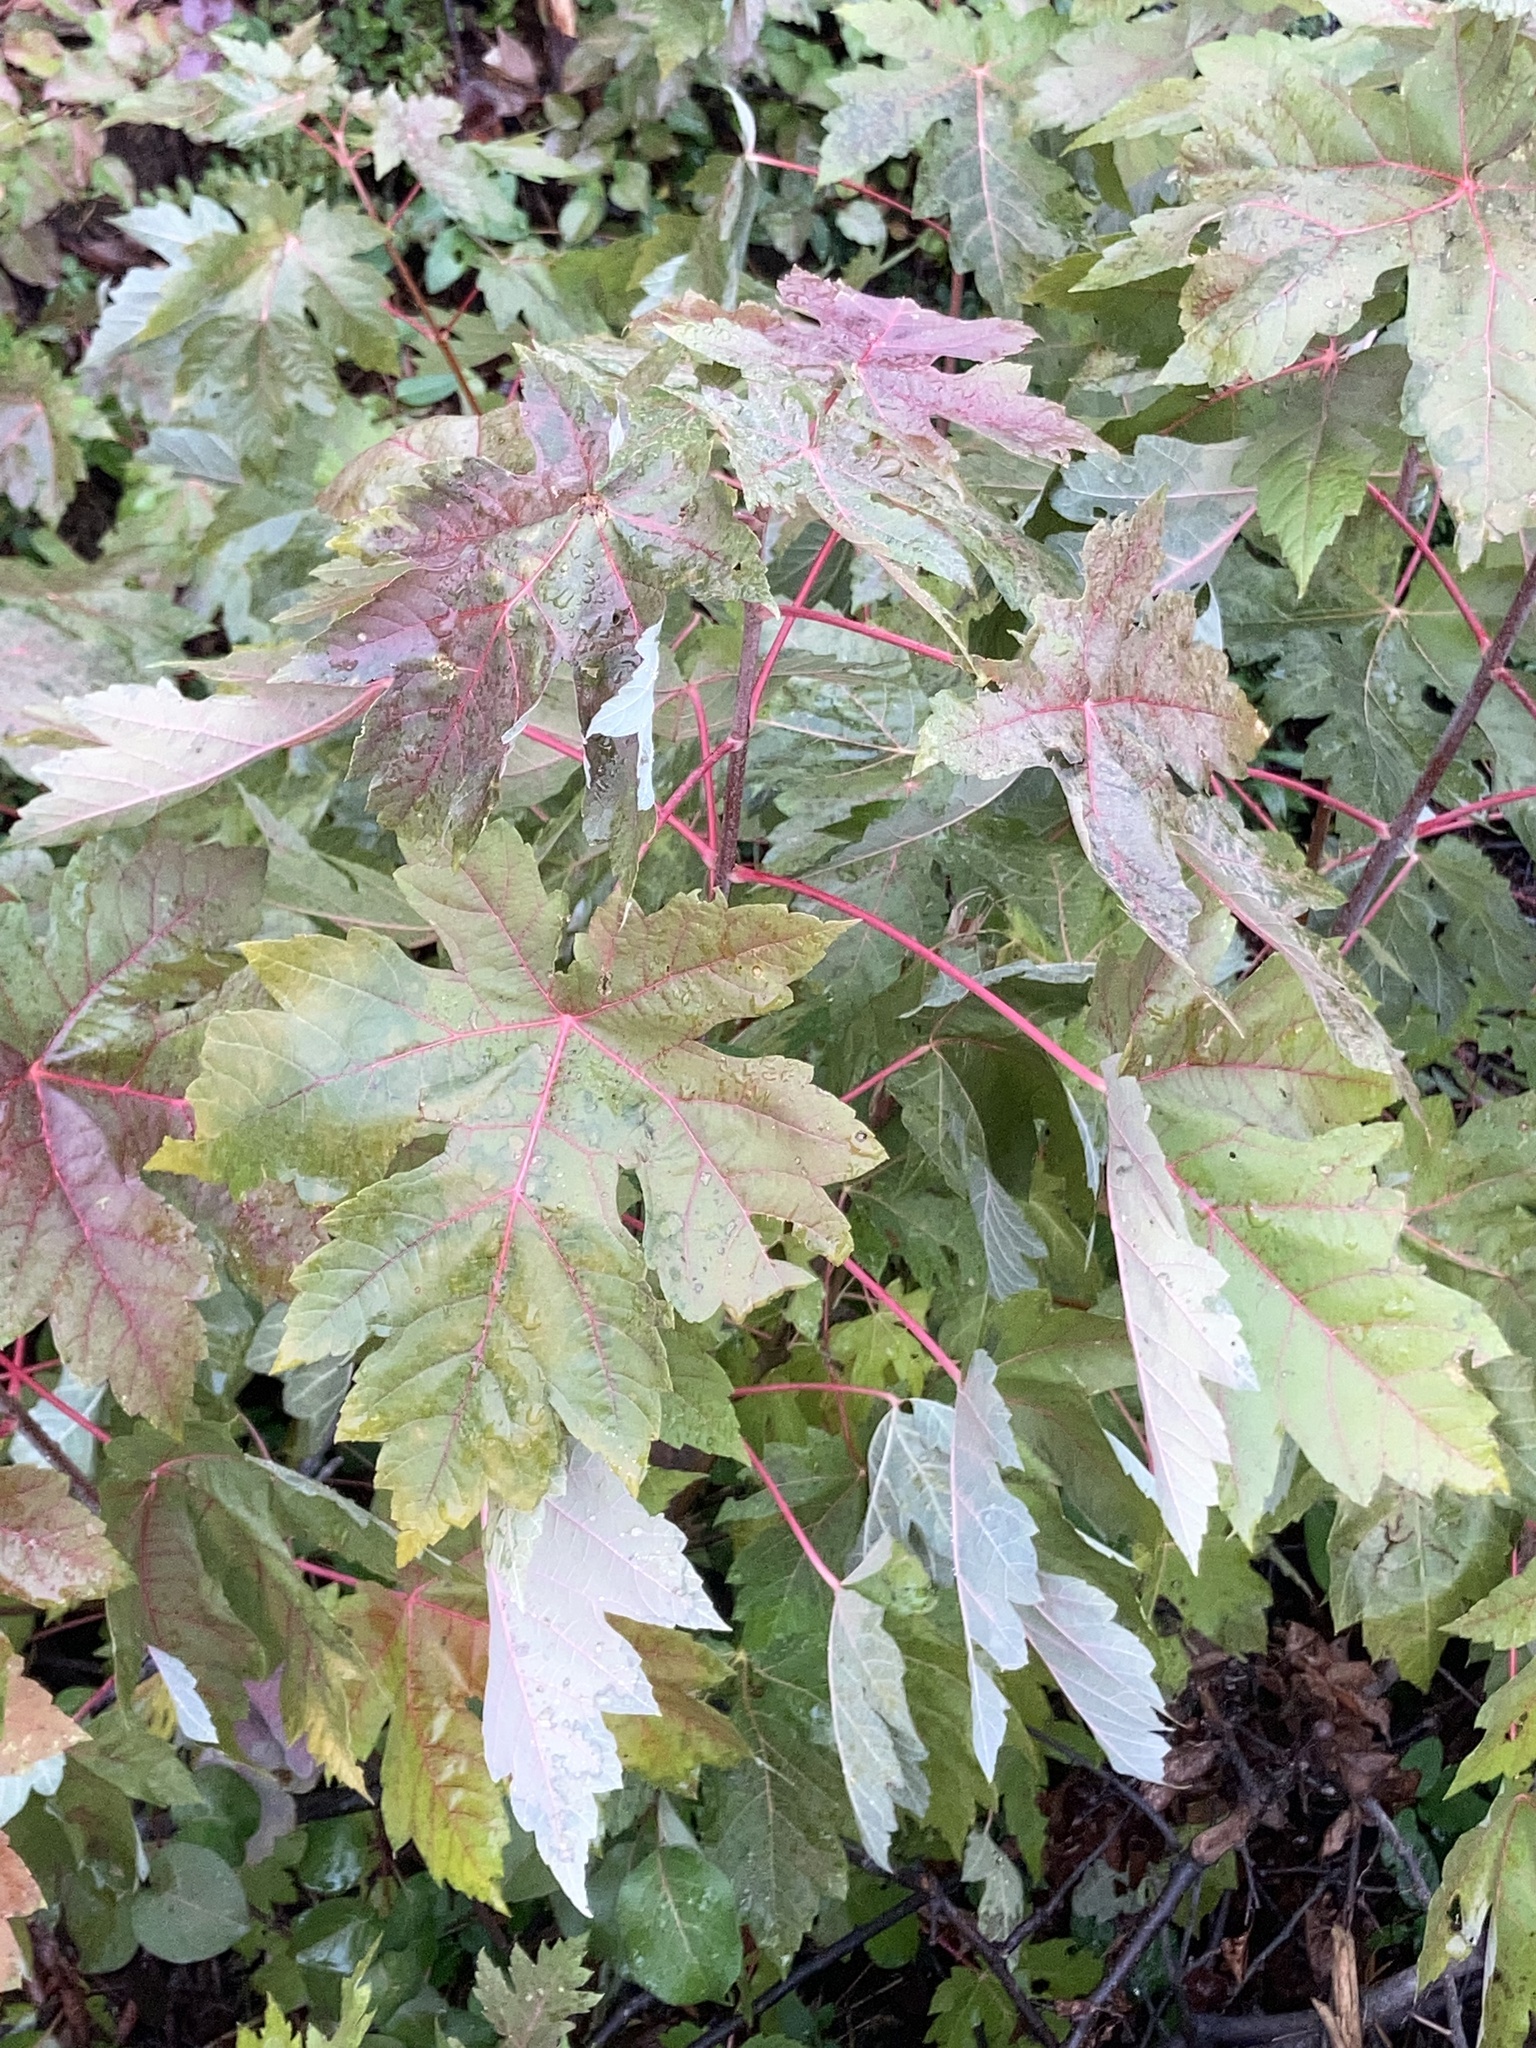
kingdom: Plantae
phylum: Tracheophyta
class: Magnoliopsida
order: Sapindales
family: Sapindaceae
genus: Acer
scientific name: Acer saccharinum
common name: Silver maple
